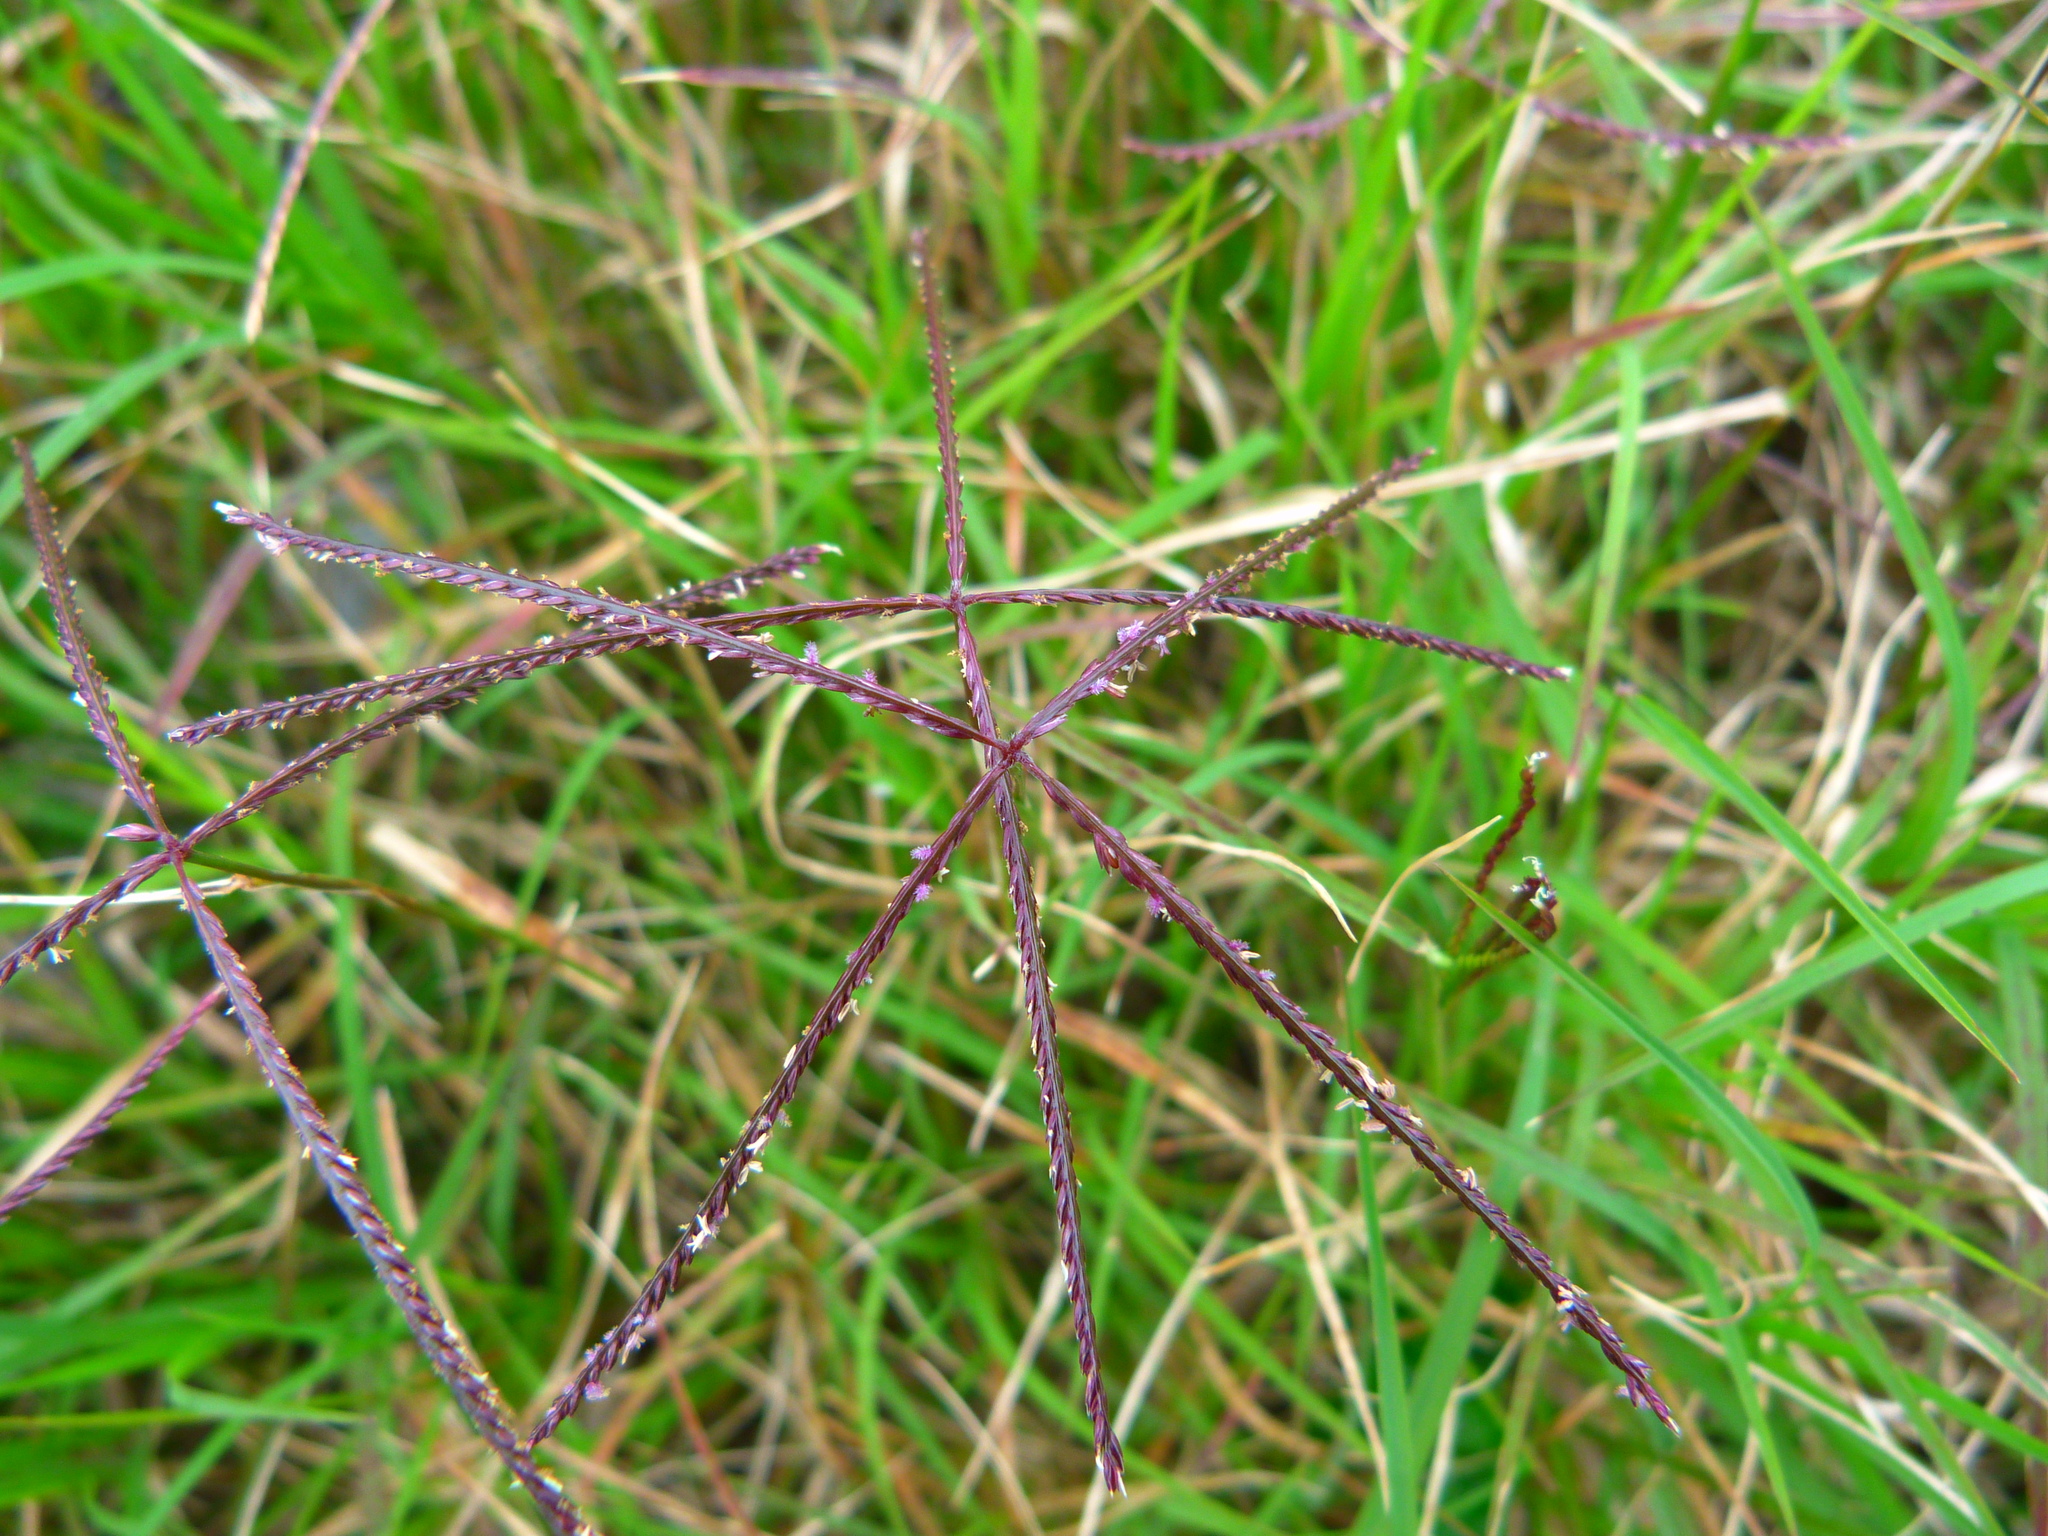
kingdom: Plantae
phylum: Tracheophyta
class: Liliopsida
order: Poales
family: Poaceae
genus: Cynodon
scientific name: Cynodon dactylon
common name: Bermuda grass
